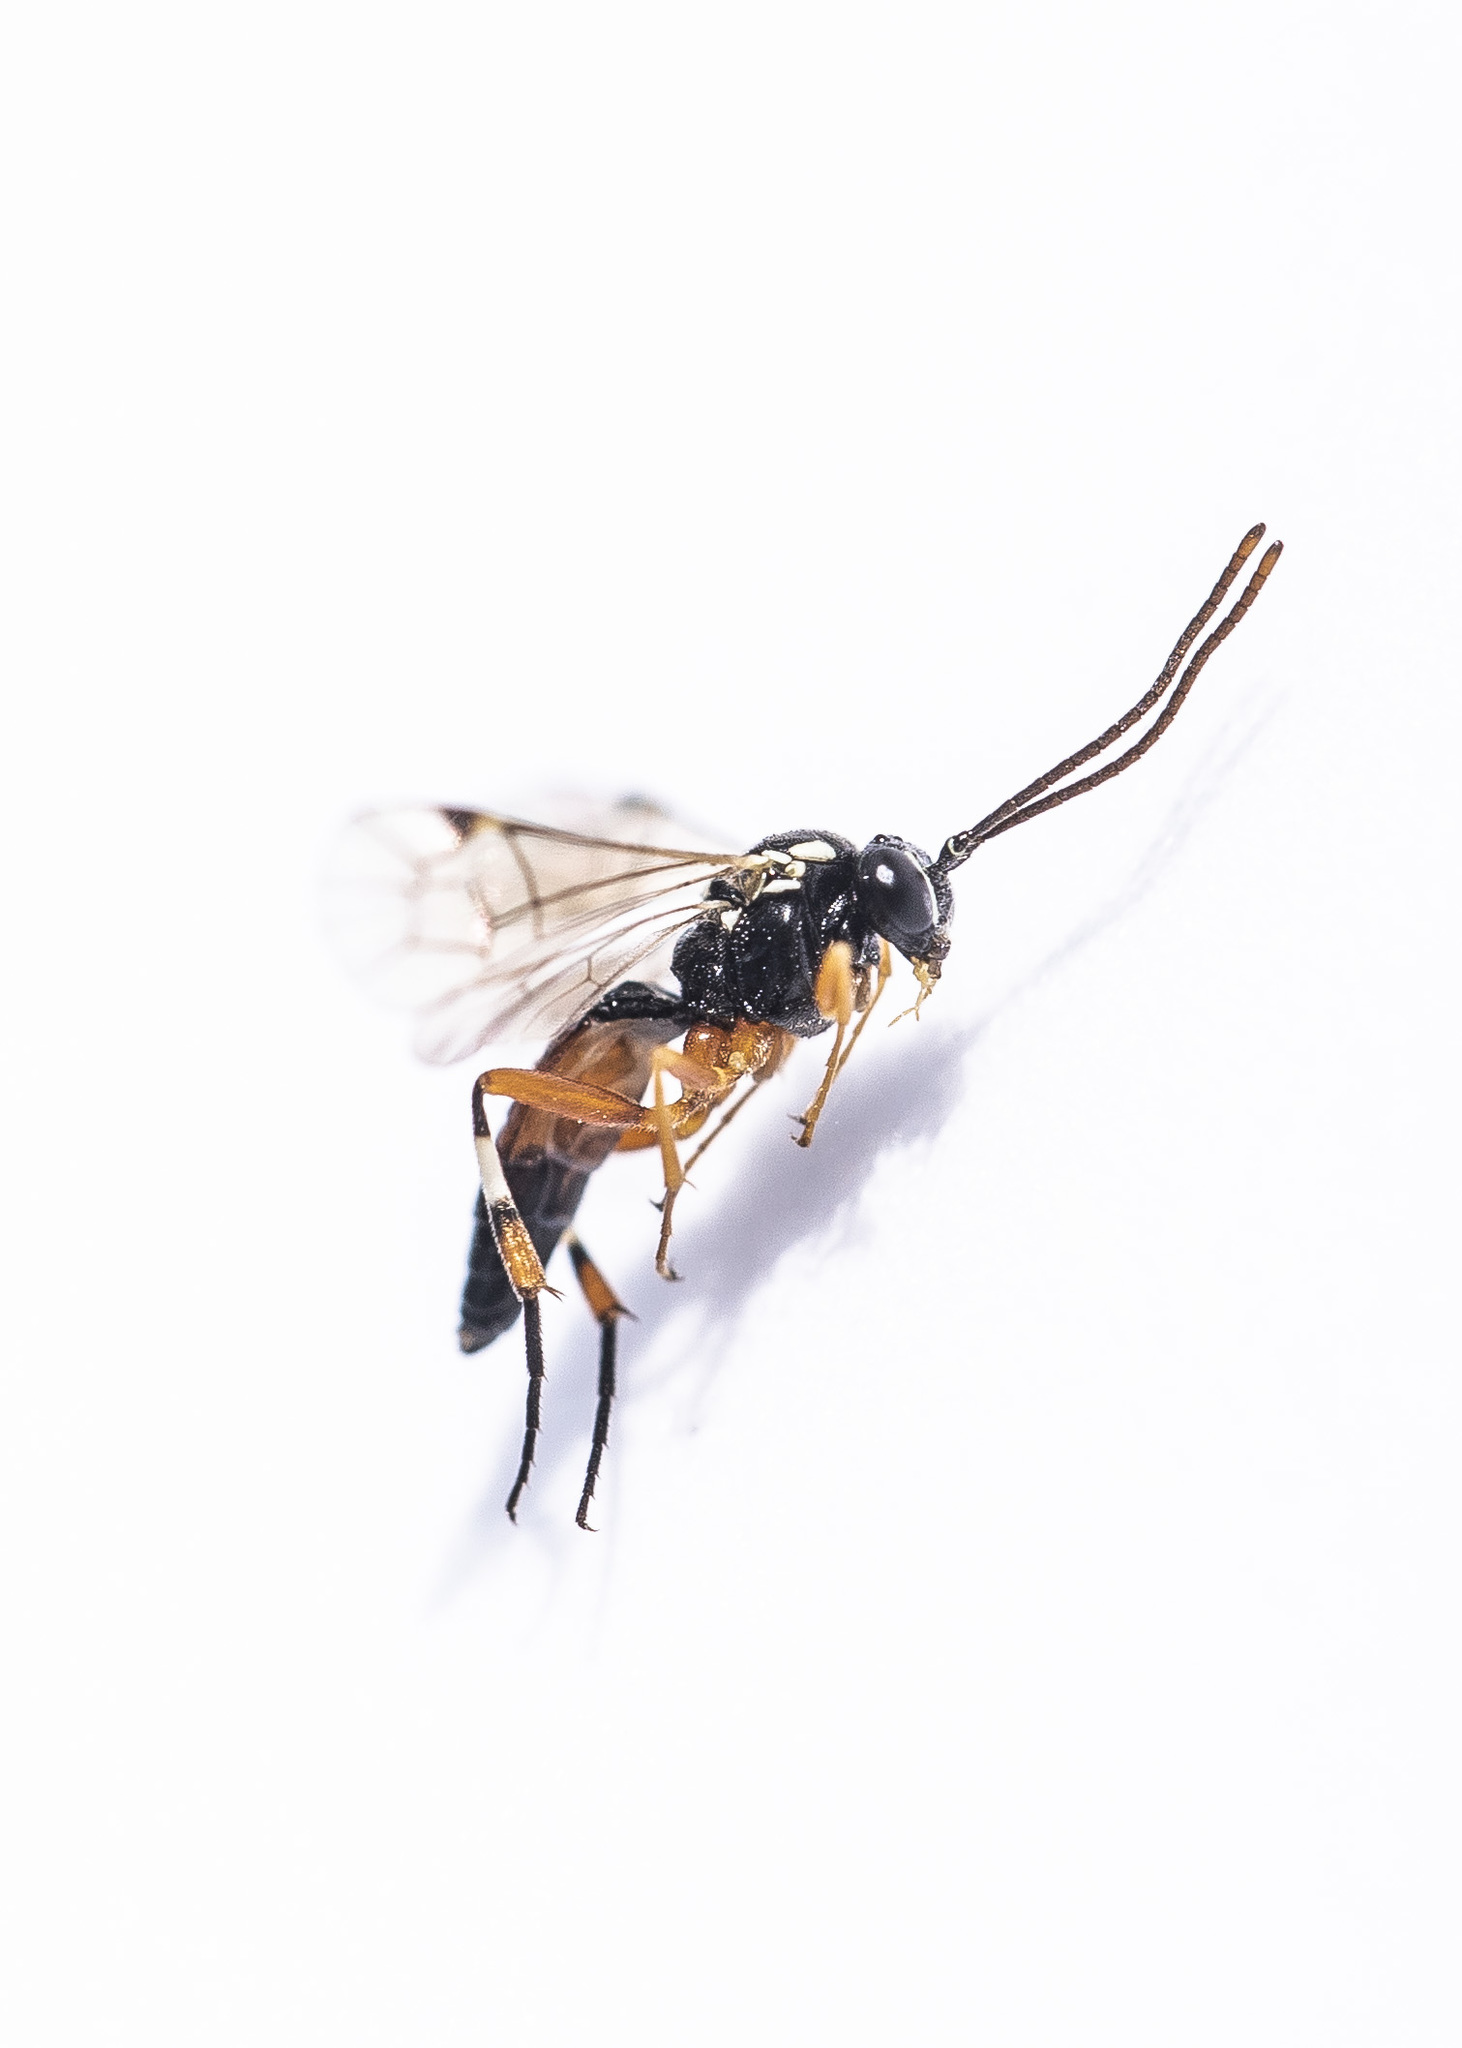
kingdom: Animalia
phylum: Arthropoda
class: Insecta
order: Hymenoptera
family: Ichneumonidae
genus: Diplazon
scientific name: Diplazon laetatorius
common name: Parasitoid wasp
